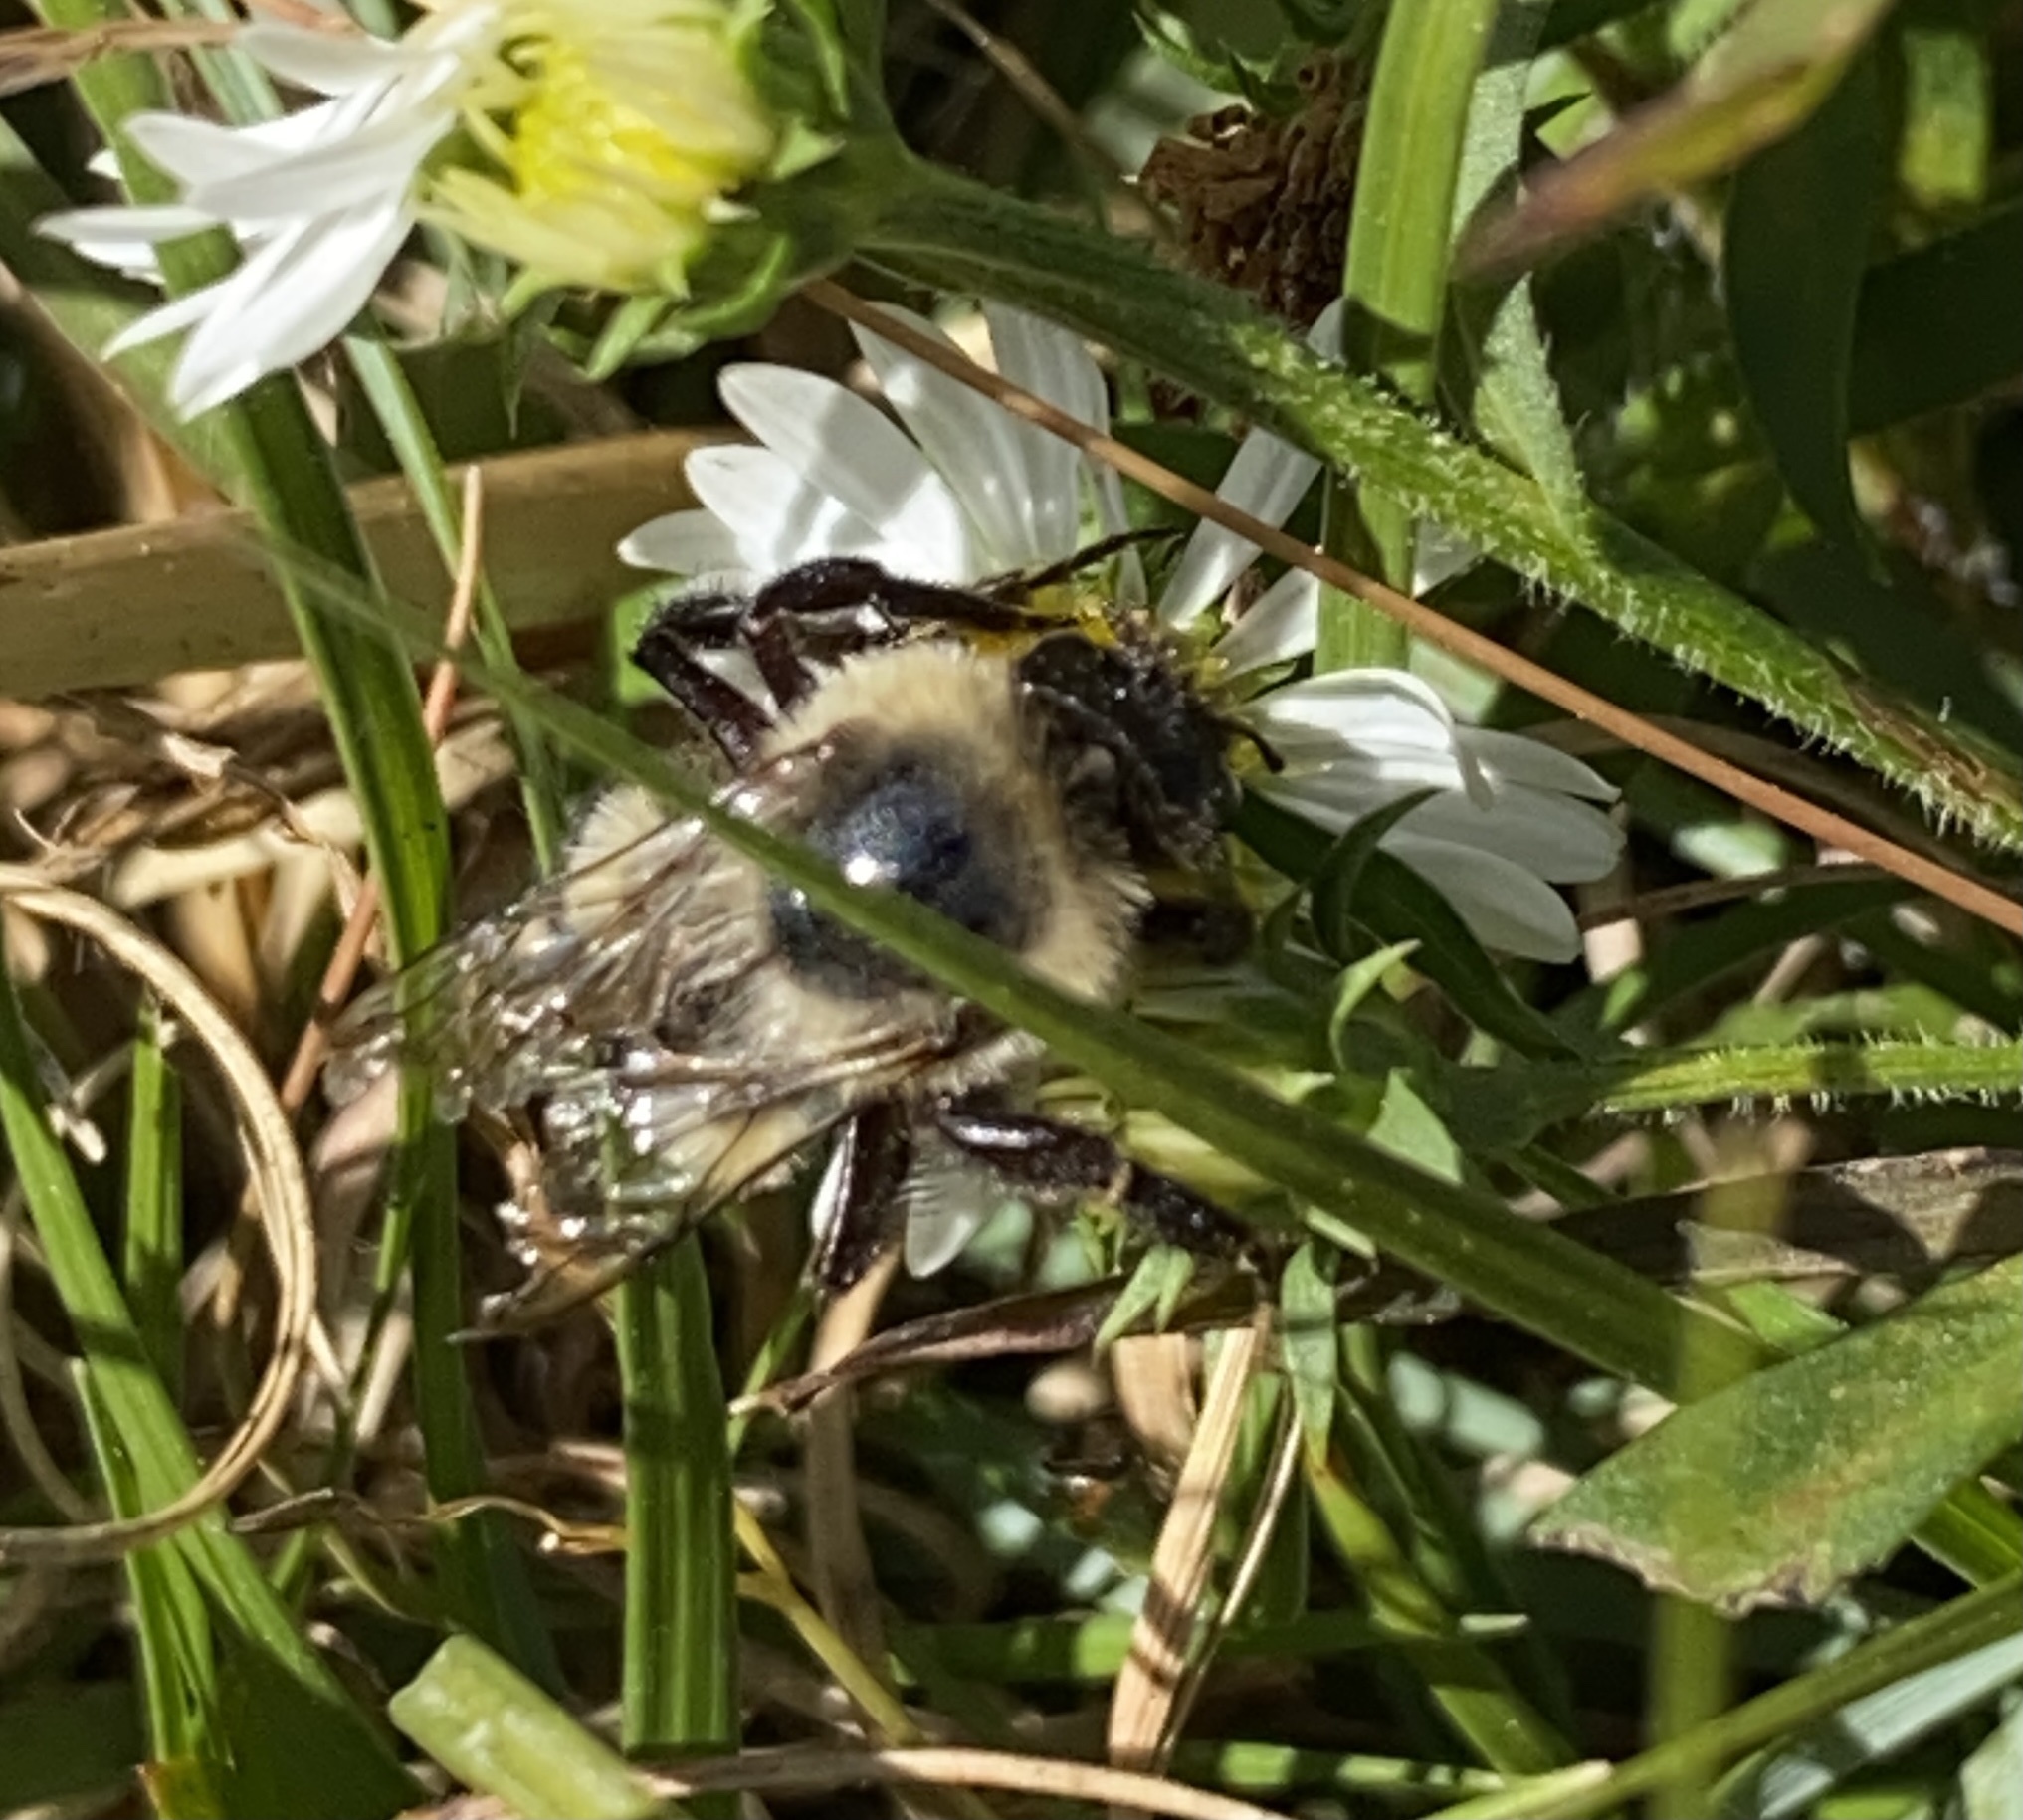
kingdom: Animalia
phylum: Arthropoda
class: Insecta
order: Hymenoptera
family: Apidae
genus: Bombus
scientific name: Bombus impatiens
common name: Common eastern bumble bee
